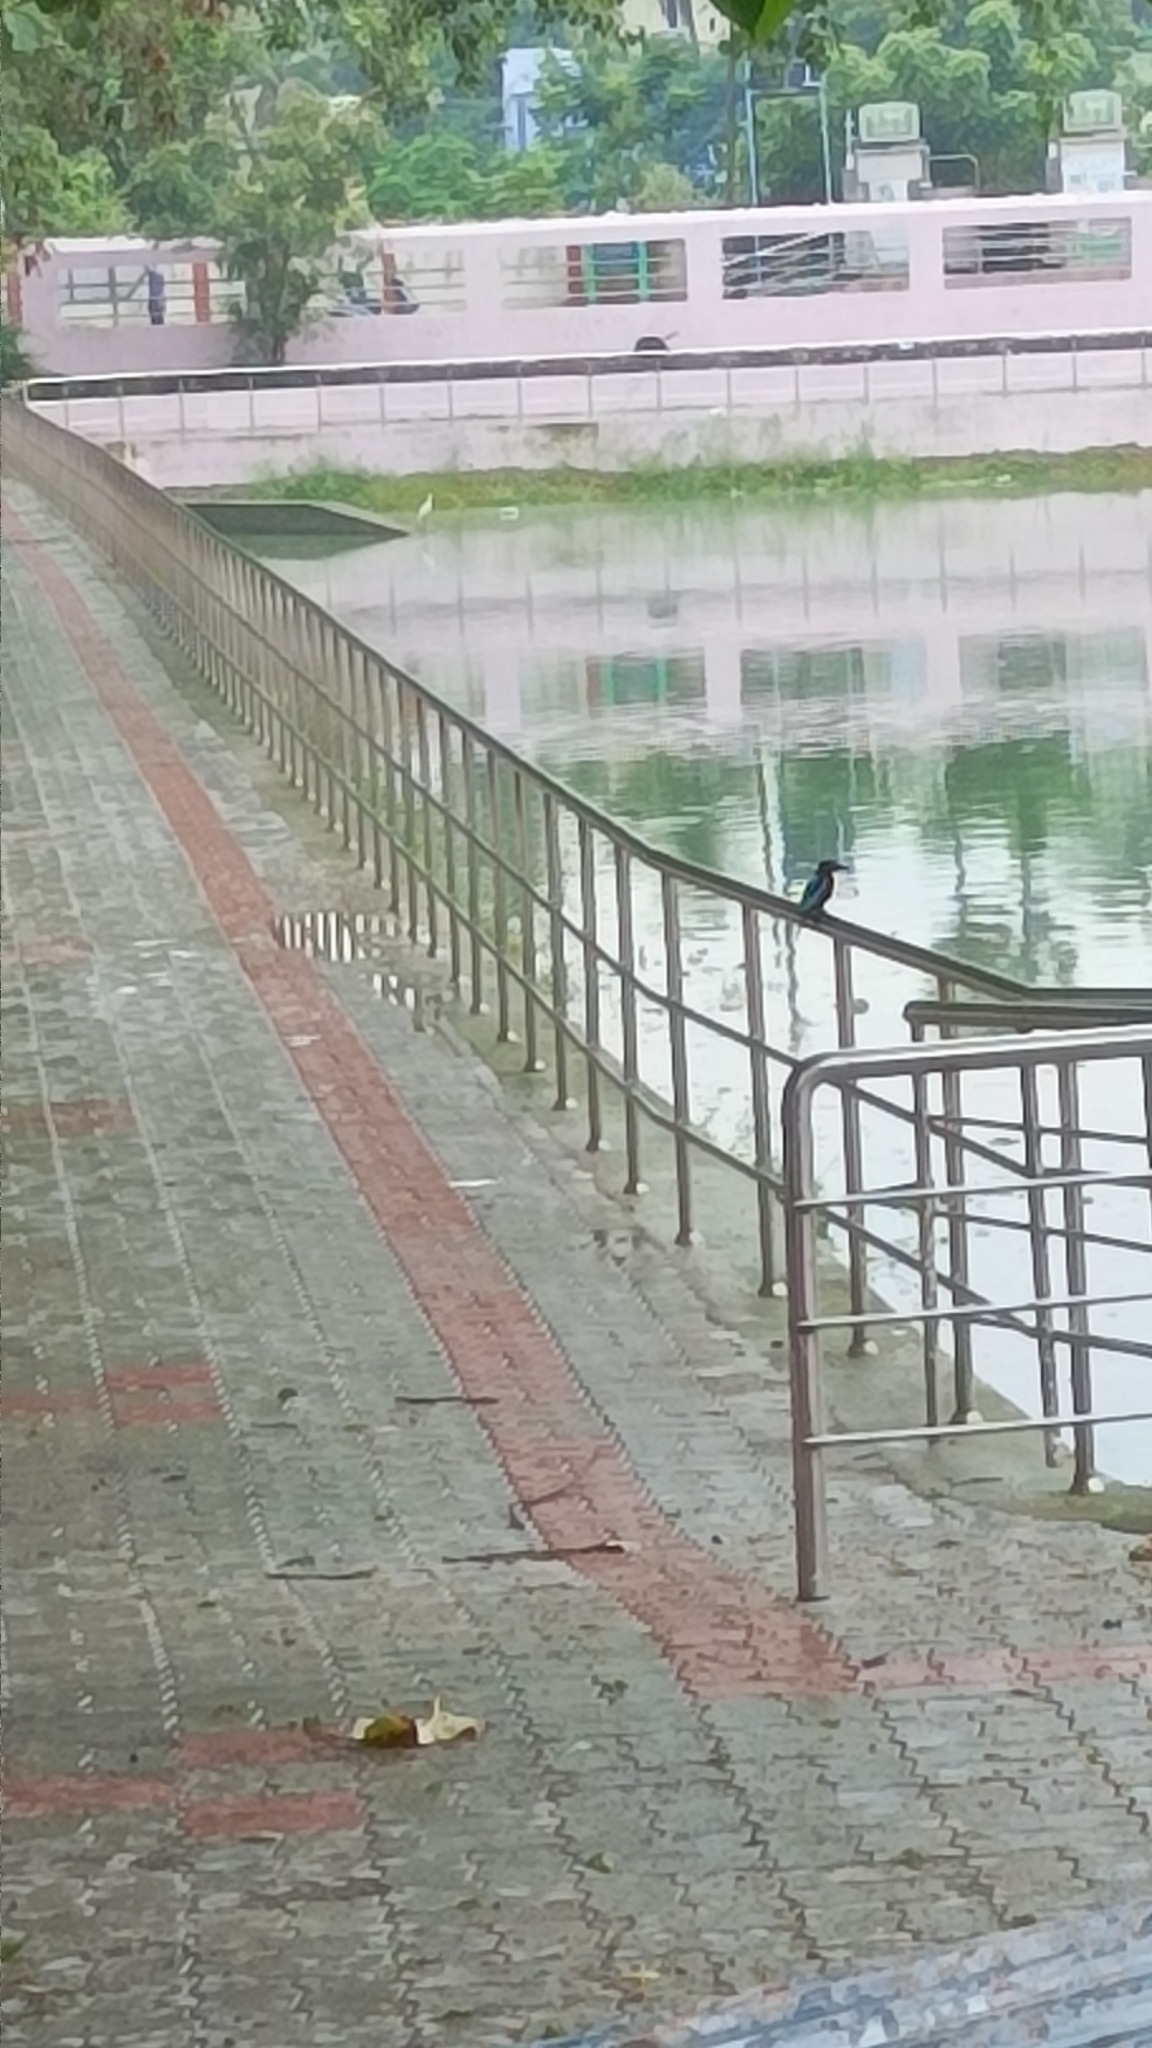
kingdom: Animalia
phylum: Chordata
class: Aves
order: Coraciiformes
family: Alcedinidae
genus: Halcyon
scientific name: Halcyon smyrnensis
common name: White-throated kingfisher
